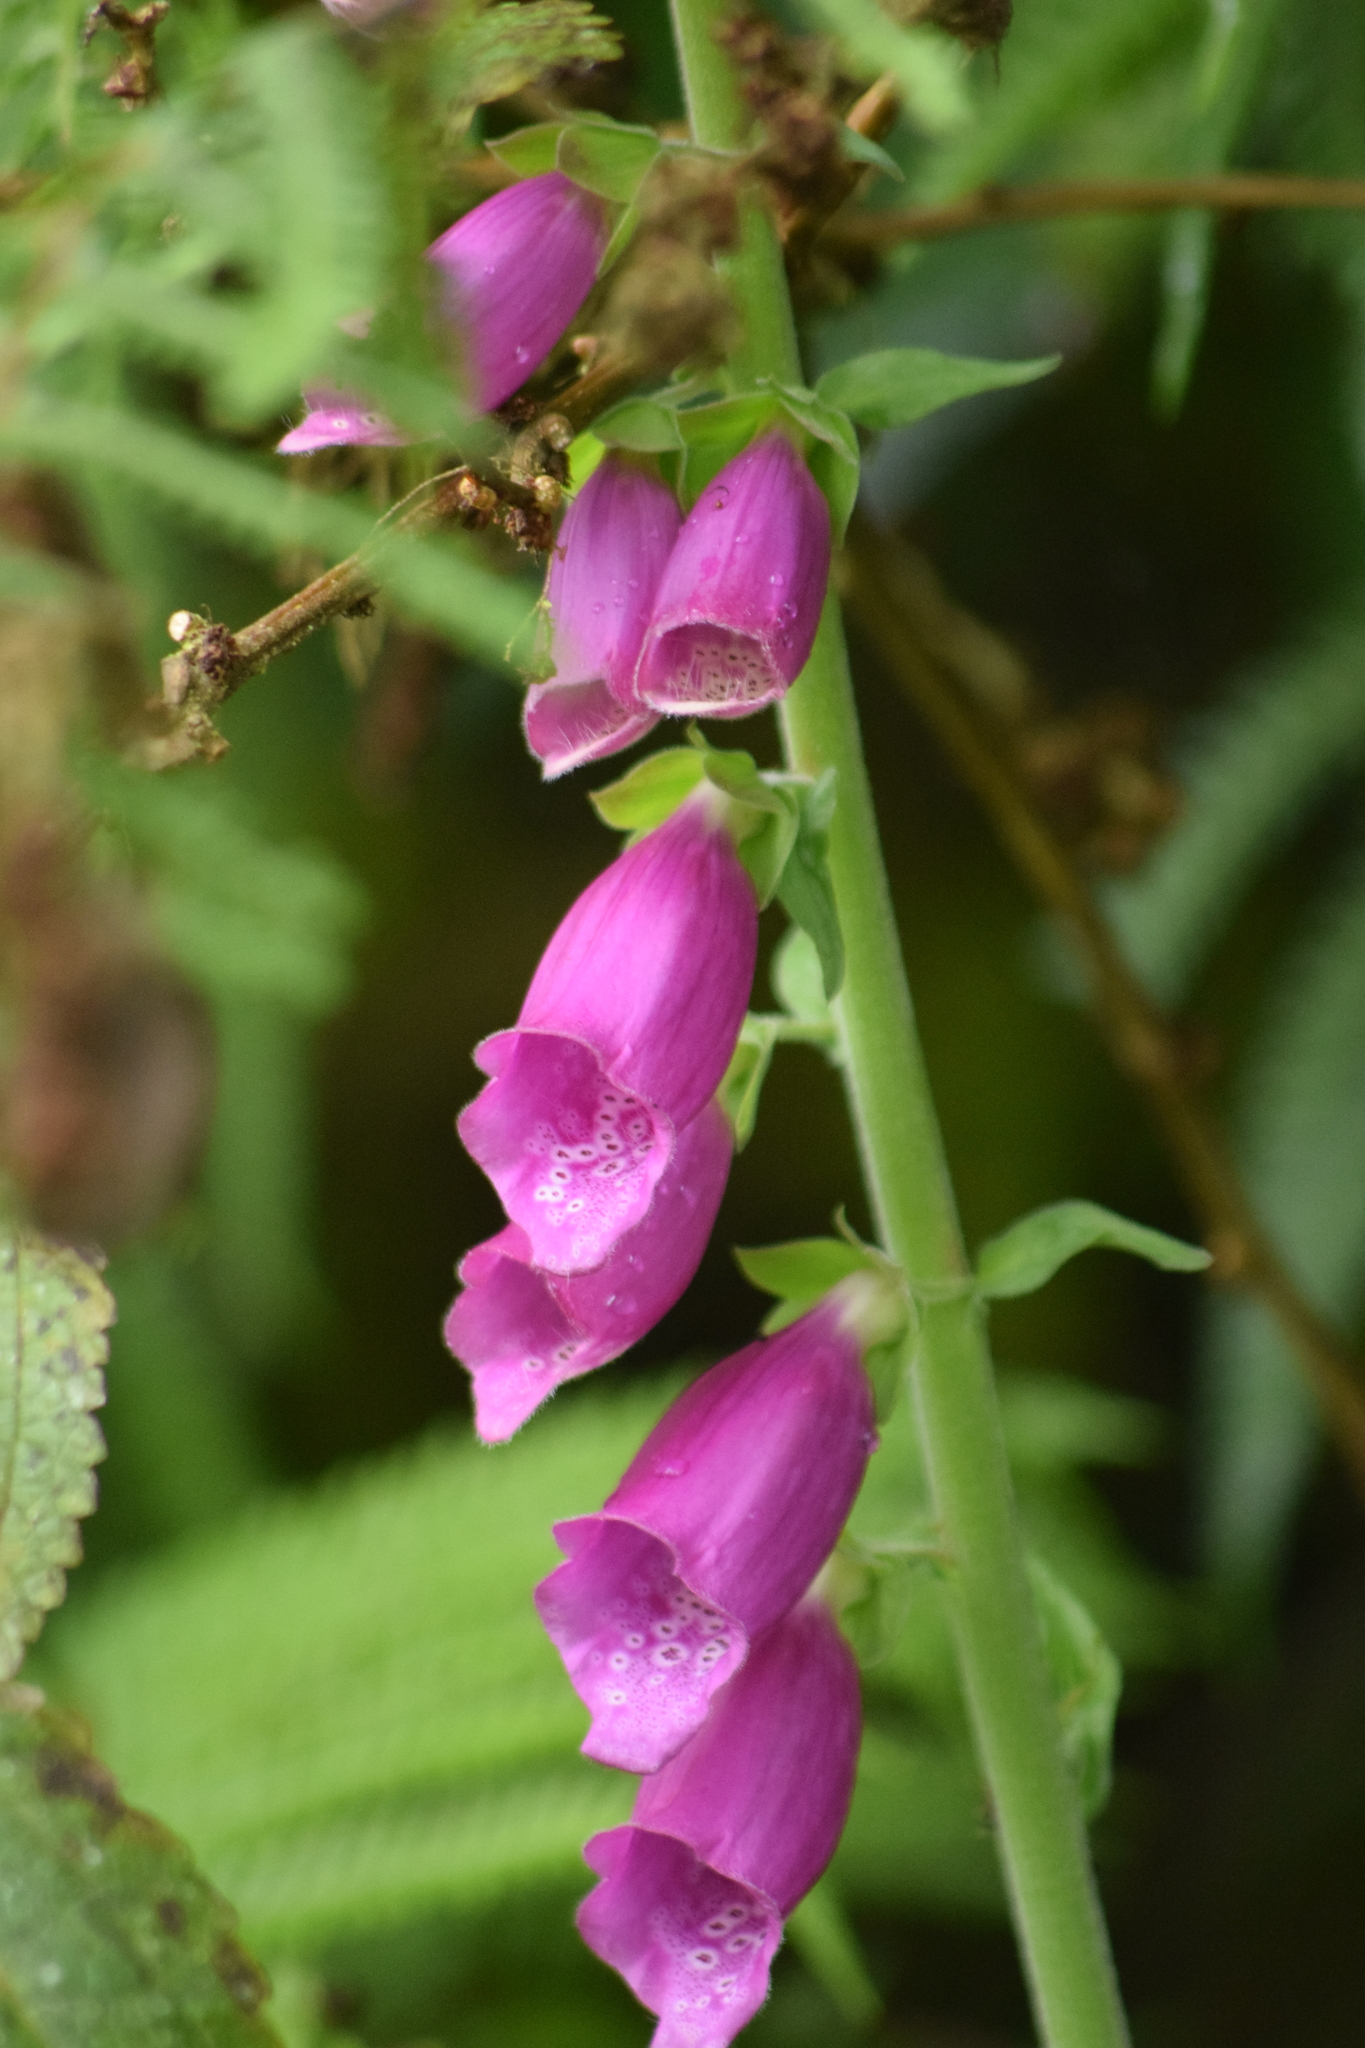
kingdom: Plantae
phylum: Tracheophyta
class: Magnoliopsida
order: Lamiales
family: Plantaginaceae
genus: Digitalis
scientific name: Digitalis purpurea
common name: Foxglove
